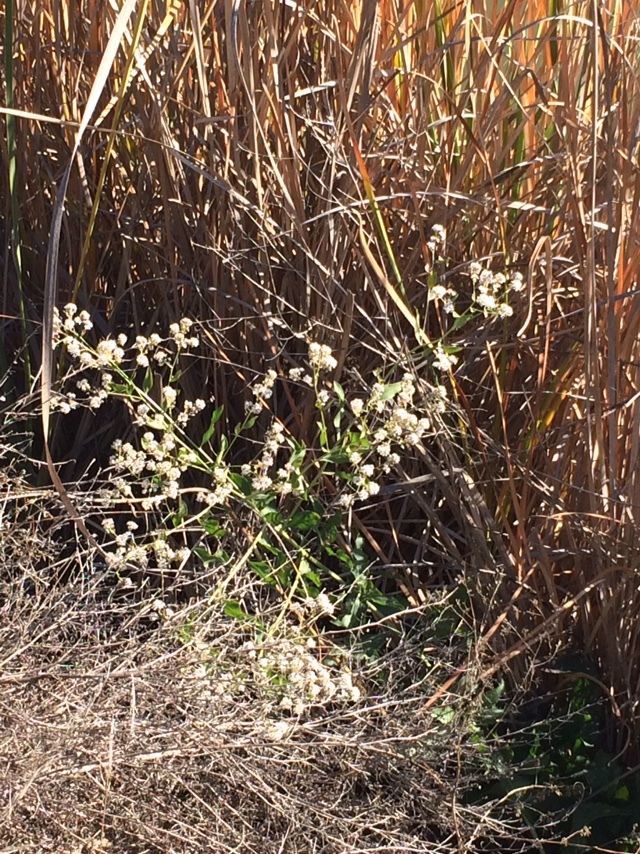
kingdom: Plantae
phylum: Tracheophyta
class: Magnoliopsida
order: Brassicales
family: Brassicaceae
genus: Lepidium
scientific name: Lepidium latifolium
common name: Dittander
